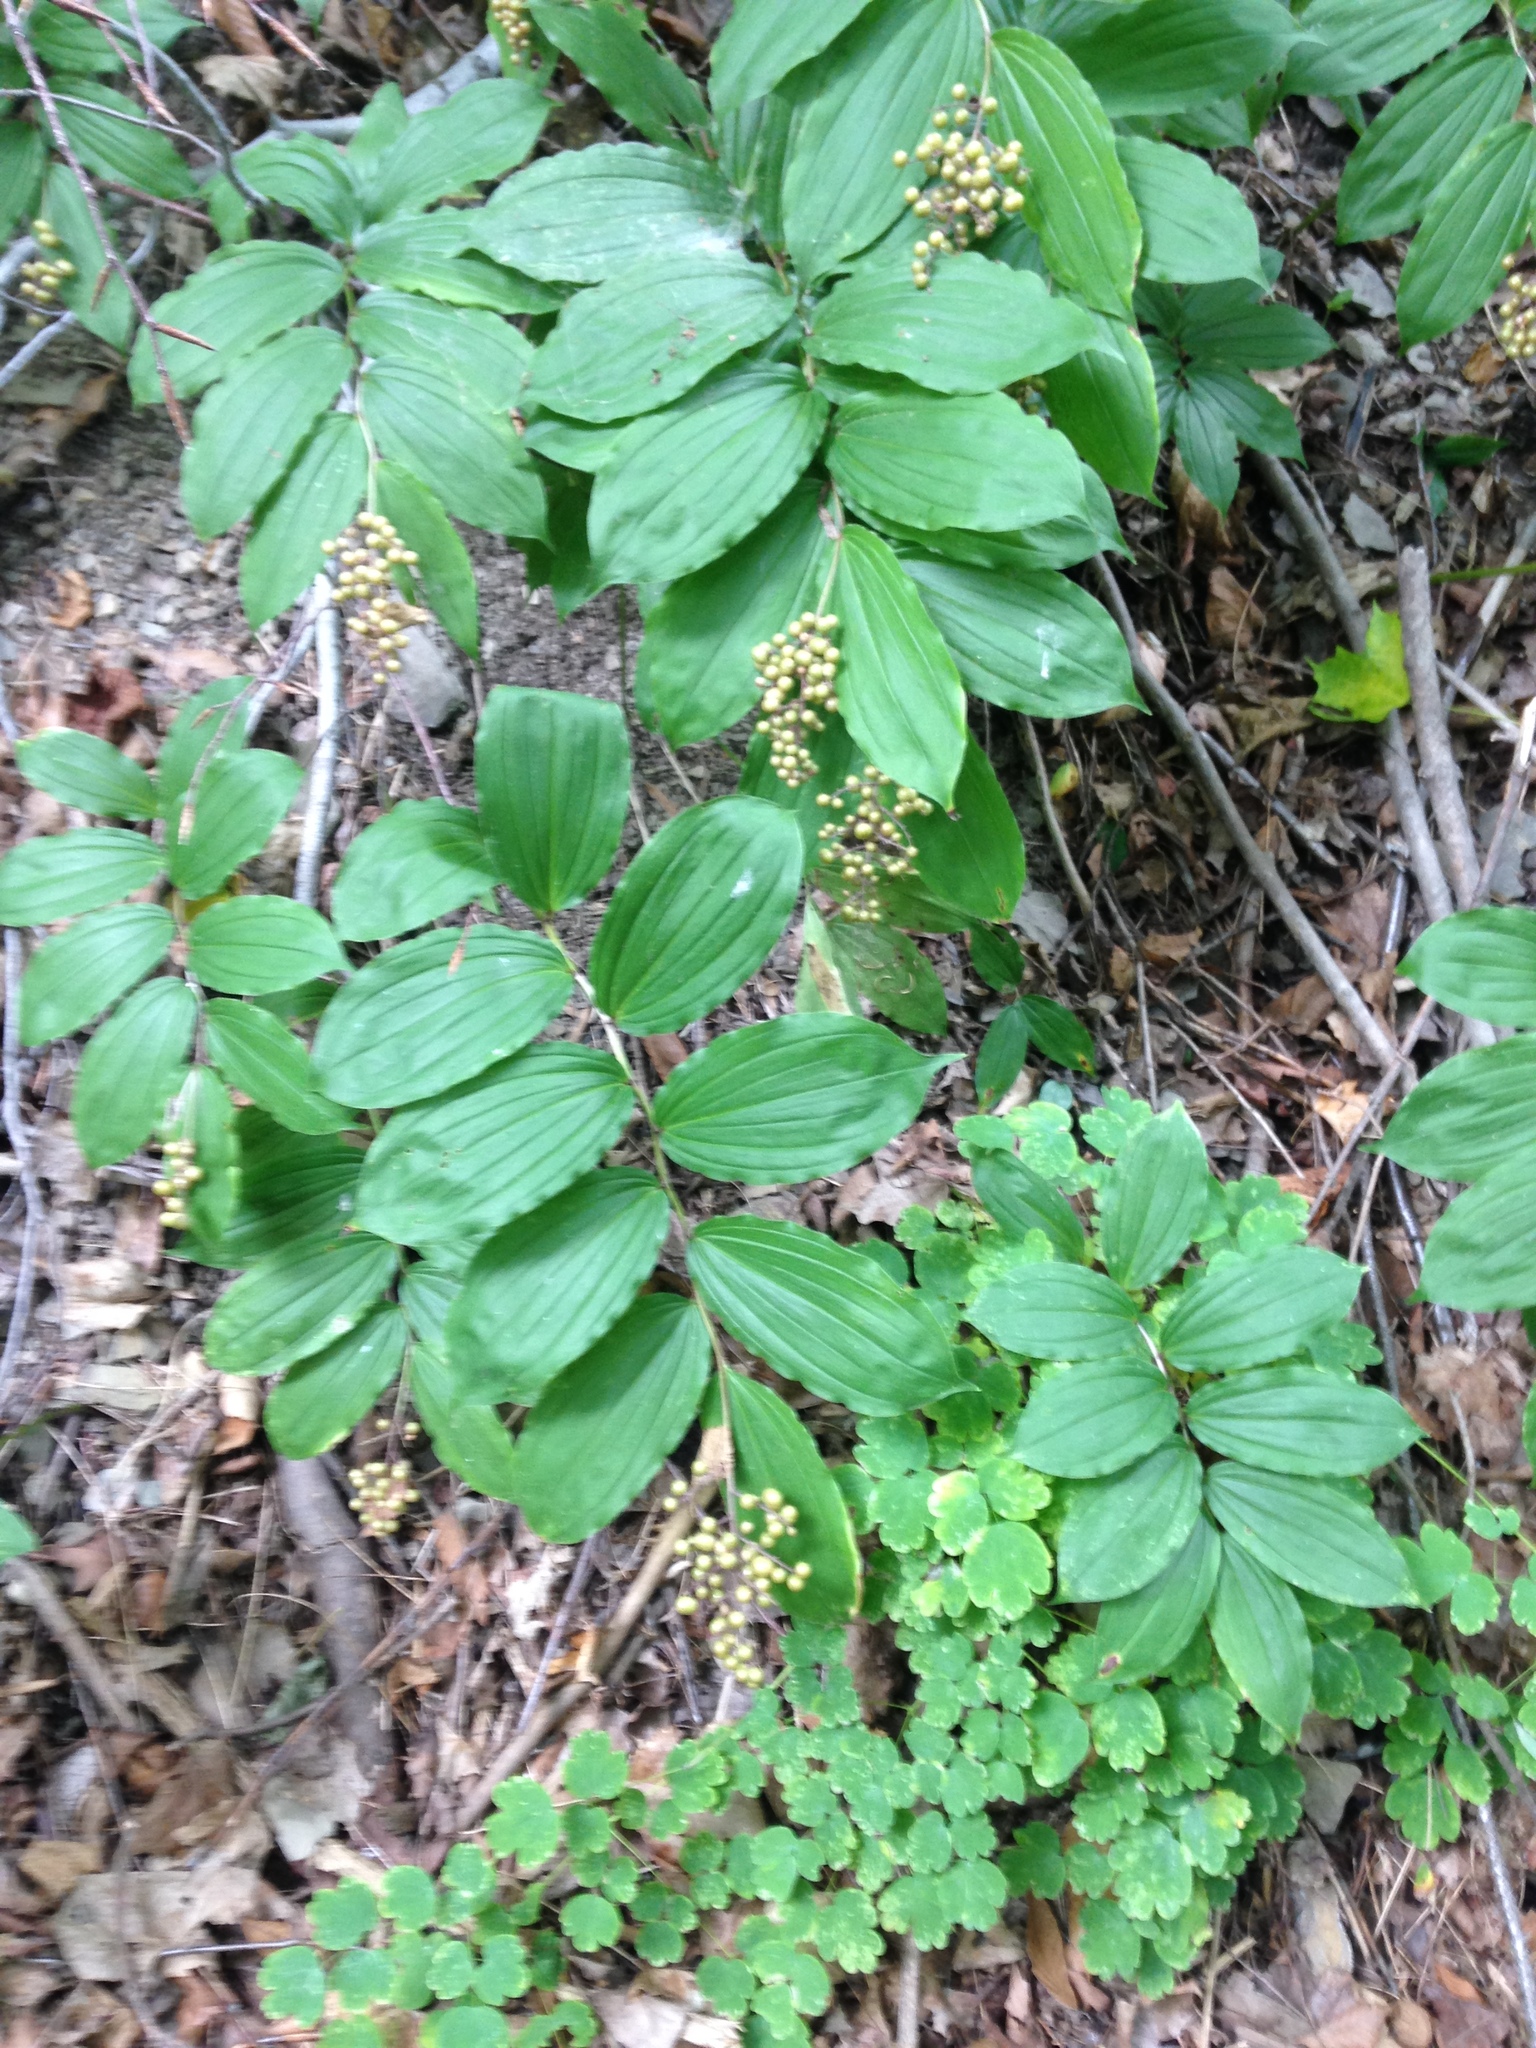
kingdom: Plantae
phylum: Tracheophyta
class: Liliopsida
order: Asparagales
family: Asparagaceae
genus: Maianthemum
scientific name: Maianthemum racemosum
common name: False spikenard
